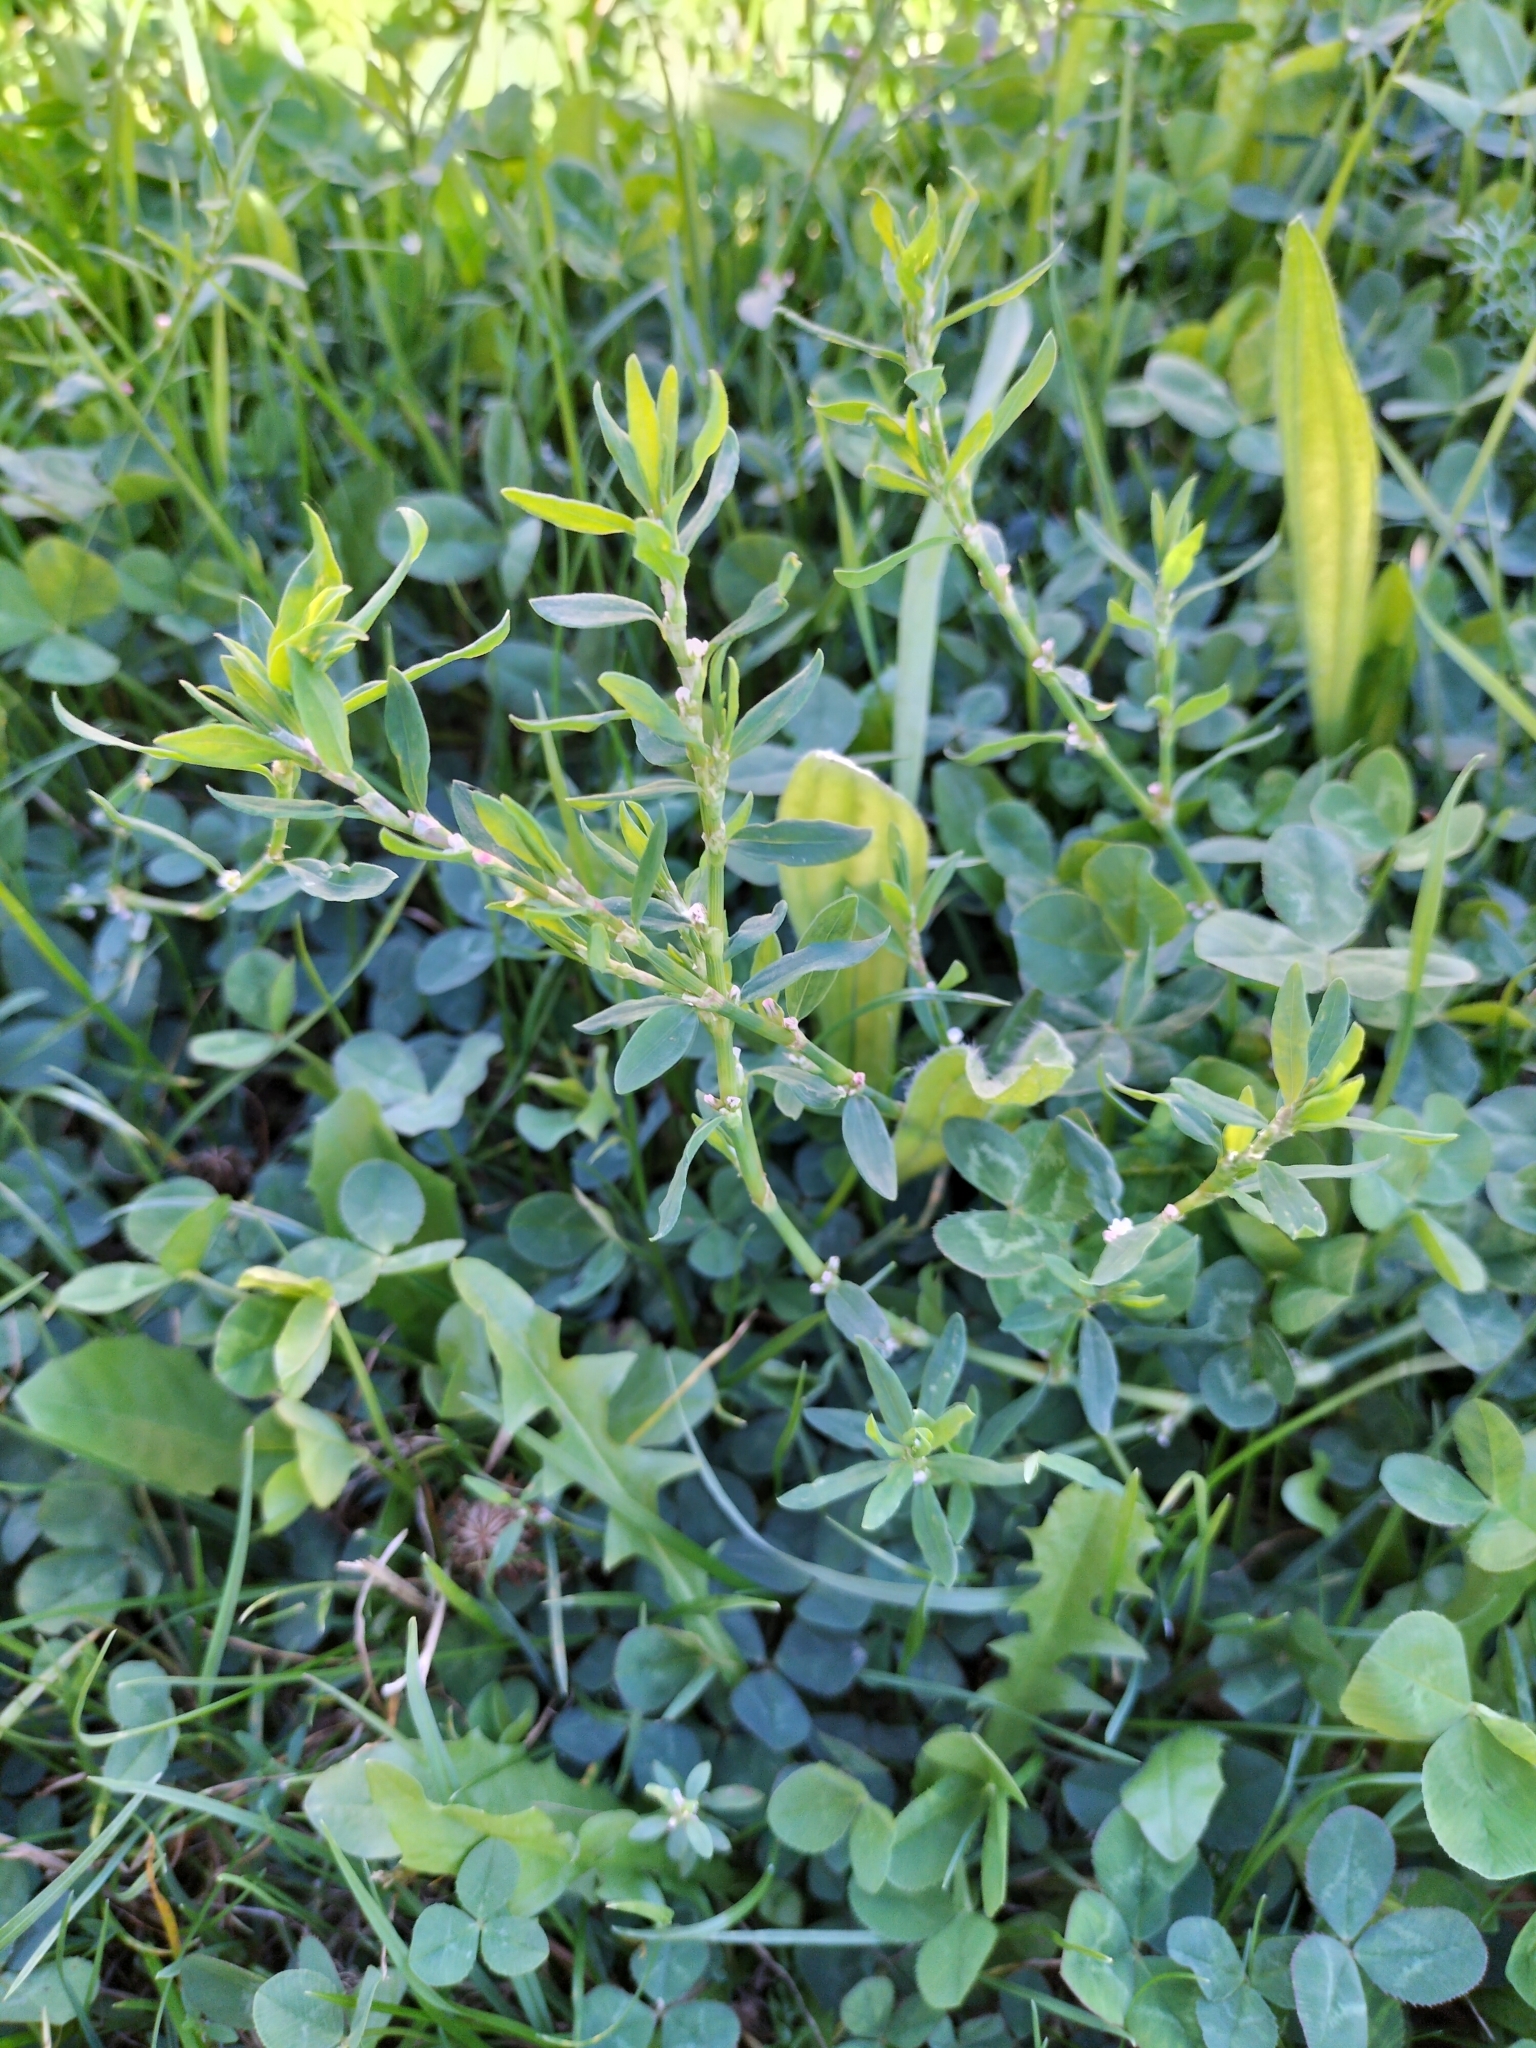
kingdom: Plantae
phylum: Tracheophyta
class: Magnoliopsida
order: Caryophyllales
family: Polygonaceae
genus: Polygonum
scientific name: Polygonum aviculare
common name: Prostrate knotweed
